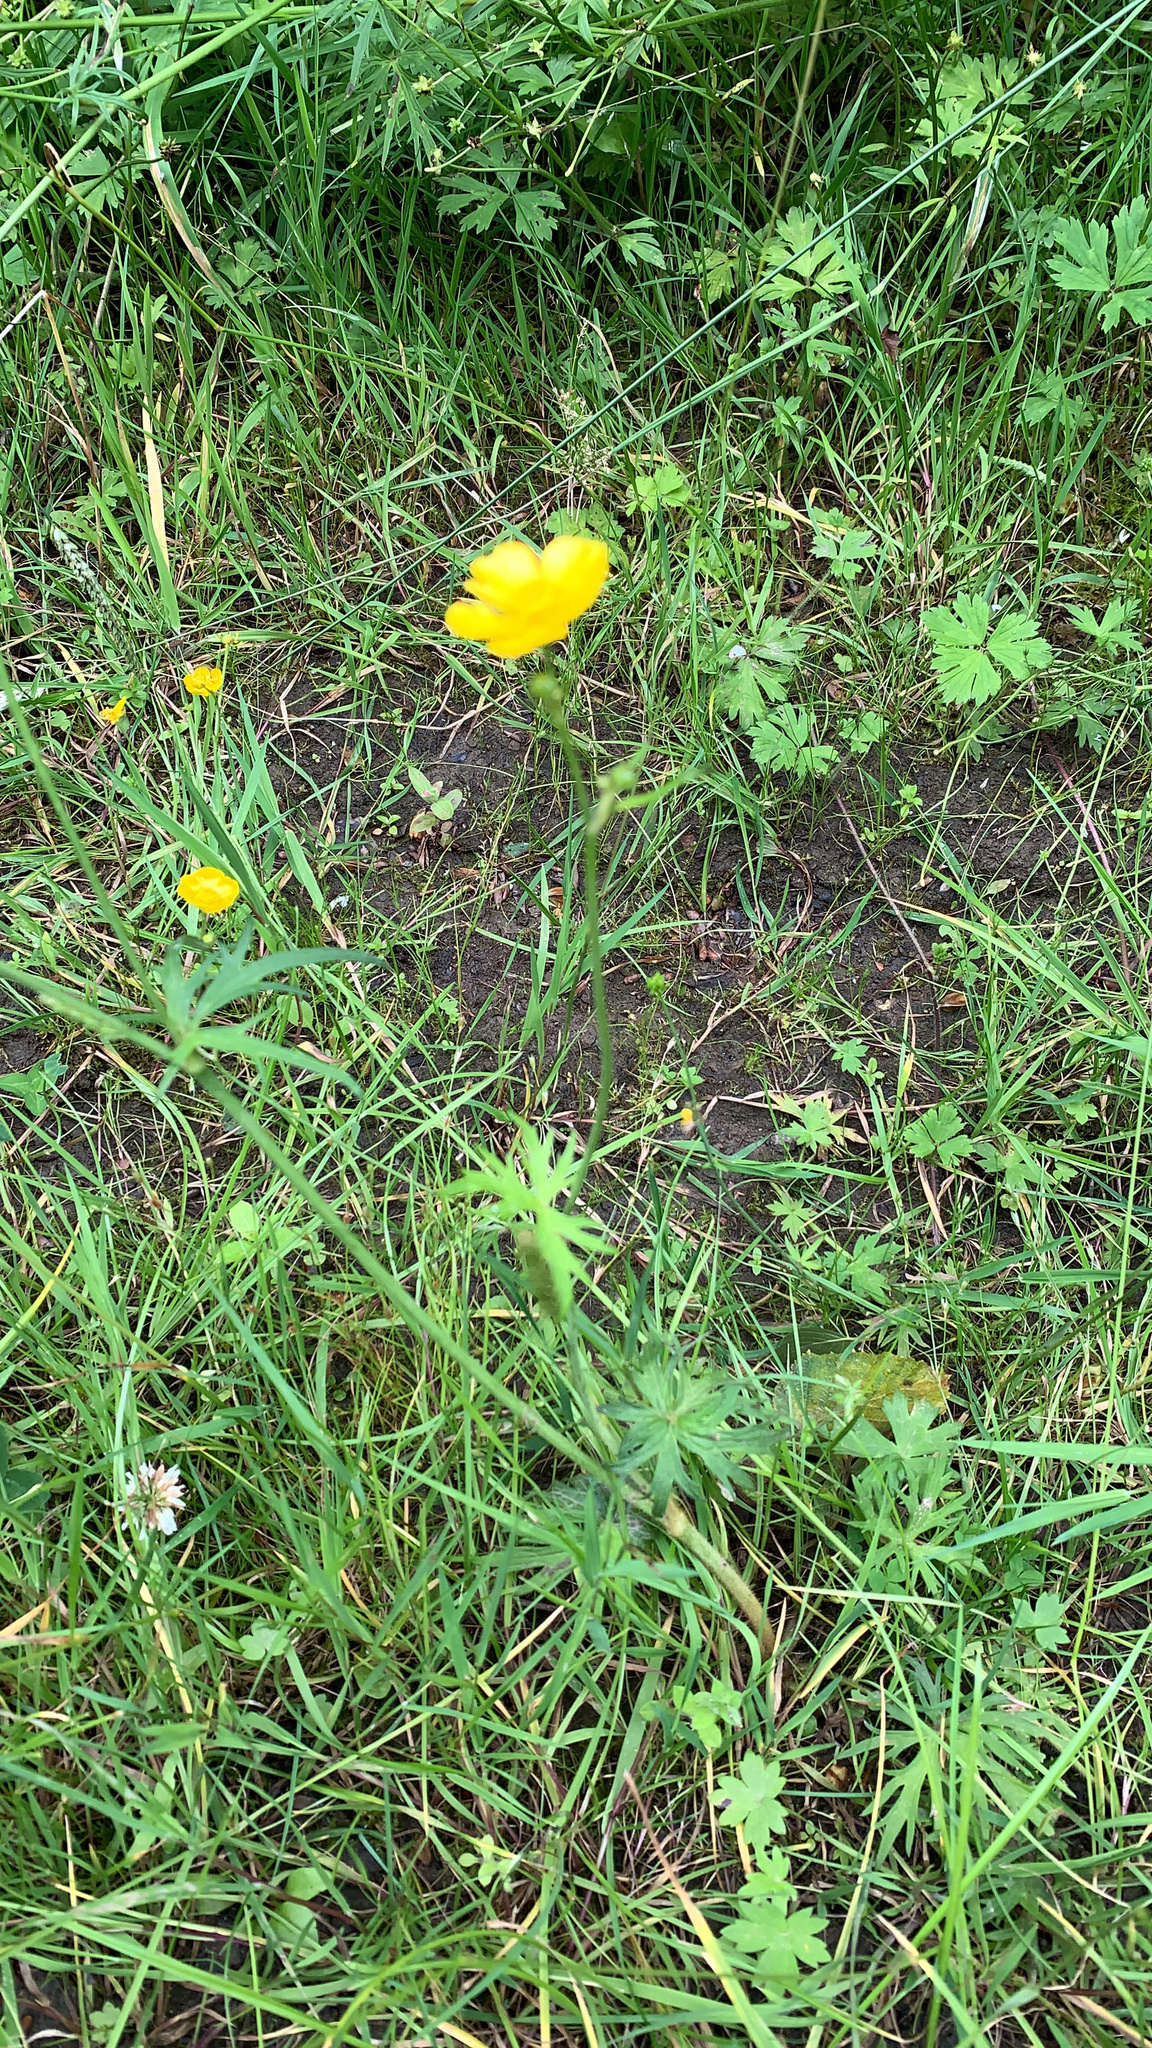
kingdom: Plantae
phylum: Tracheophyta
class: Magnoliopsida
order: Ranunculales
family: Ranunculaceae
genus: Ranunculus
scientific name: Ranunculus acris
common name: Meadow buttercup
